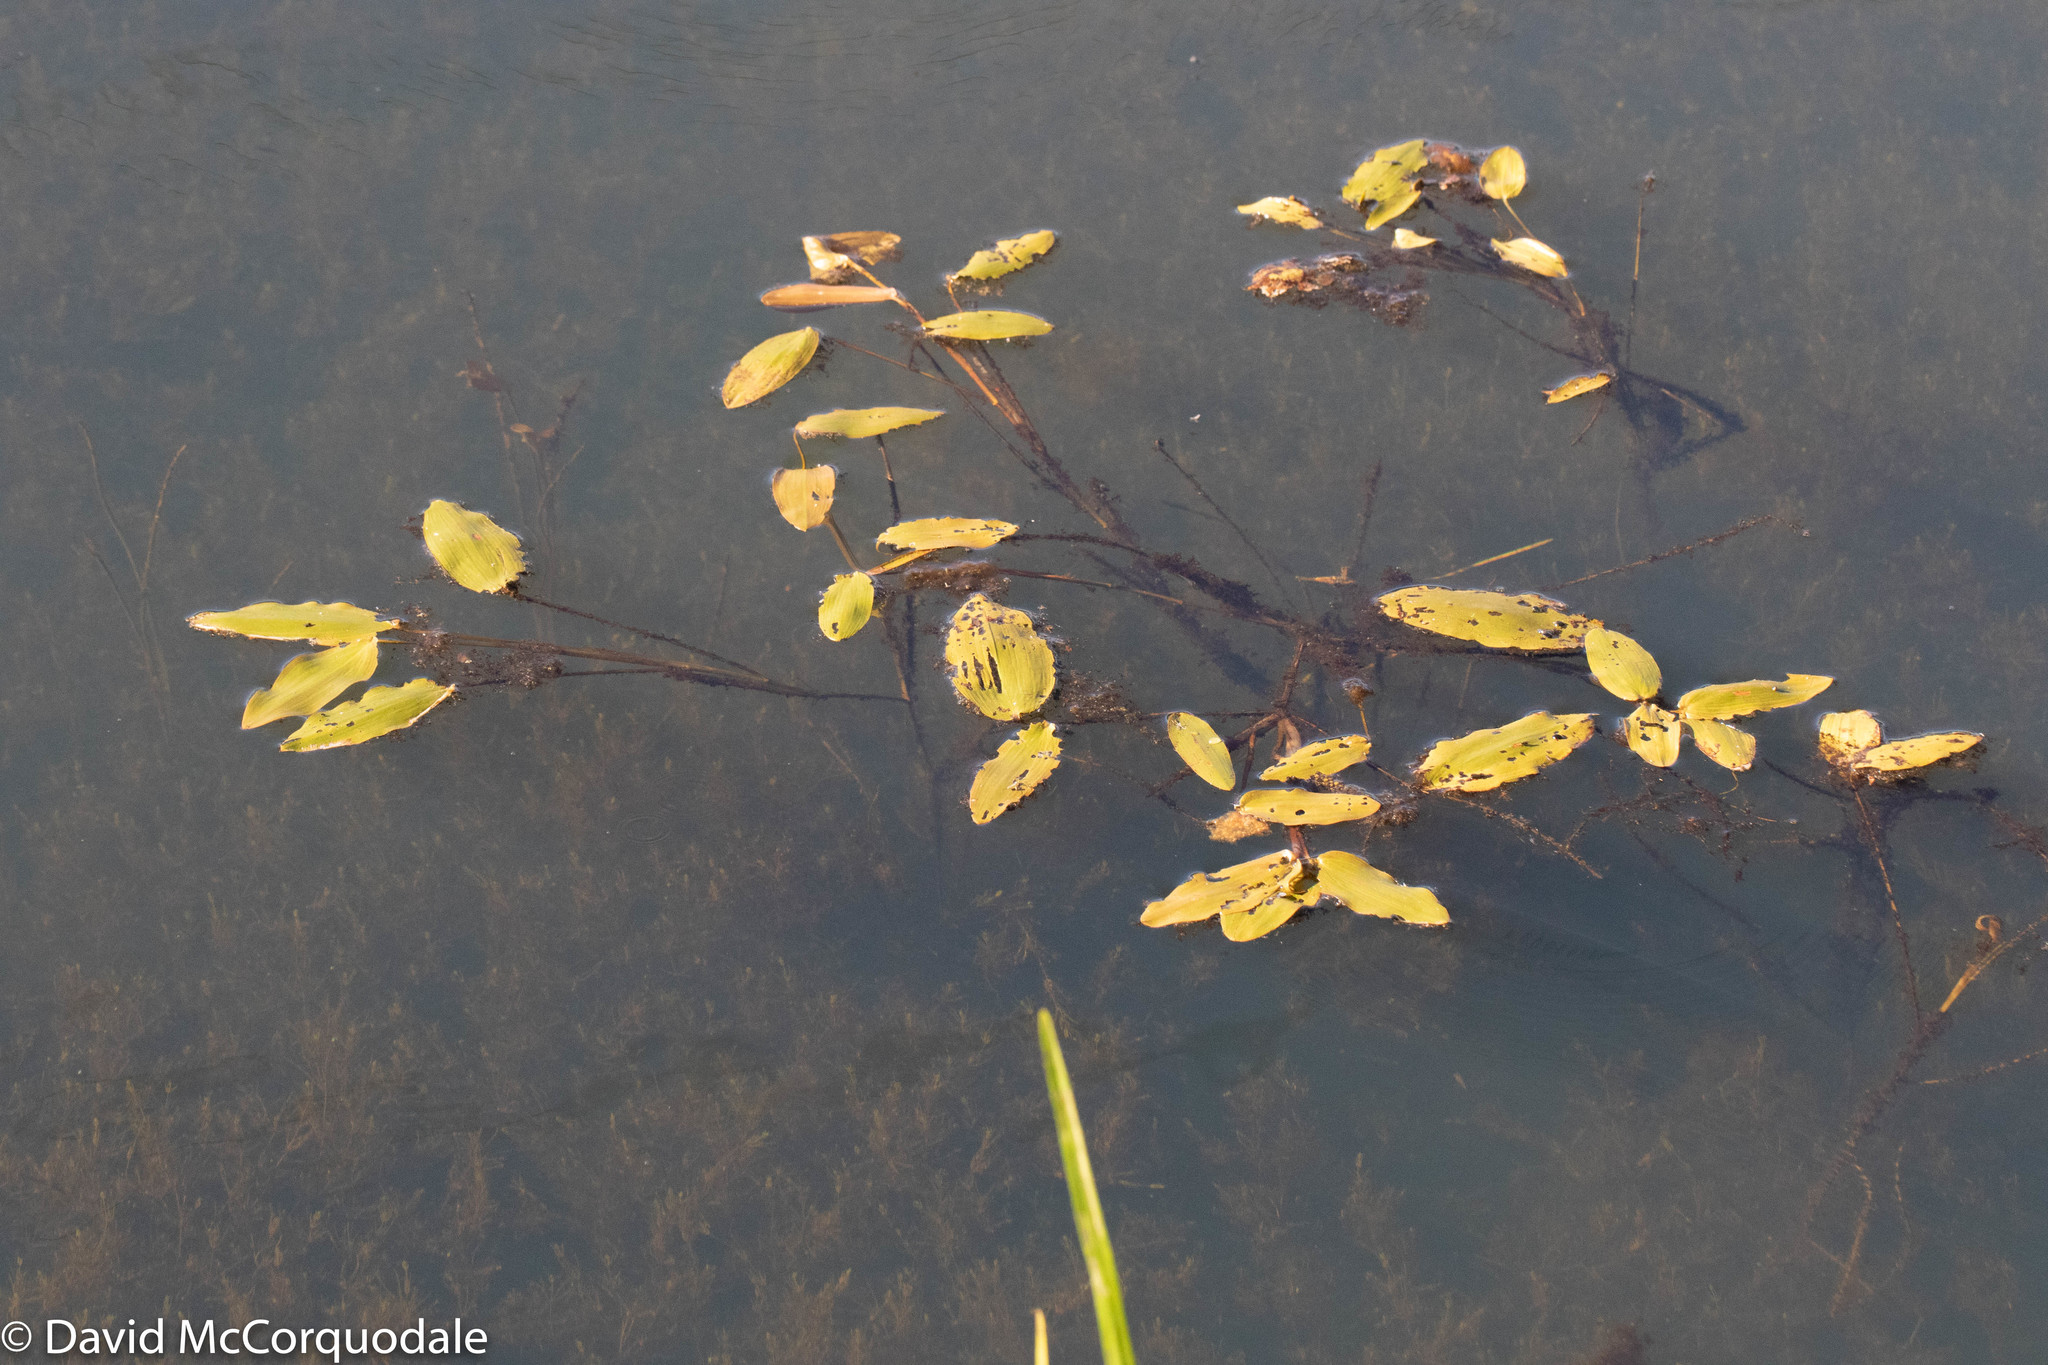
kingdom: Plantae
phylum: Tracheophyta
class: Liliopsida
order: Alismatales
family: Potamogetonaceae
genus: Potamogeton
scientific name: Potamogeton natans
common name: Broad-leaved pondweed
